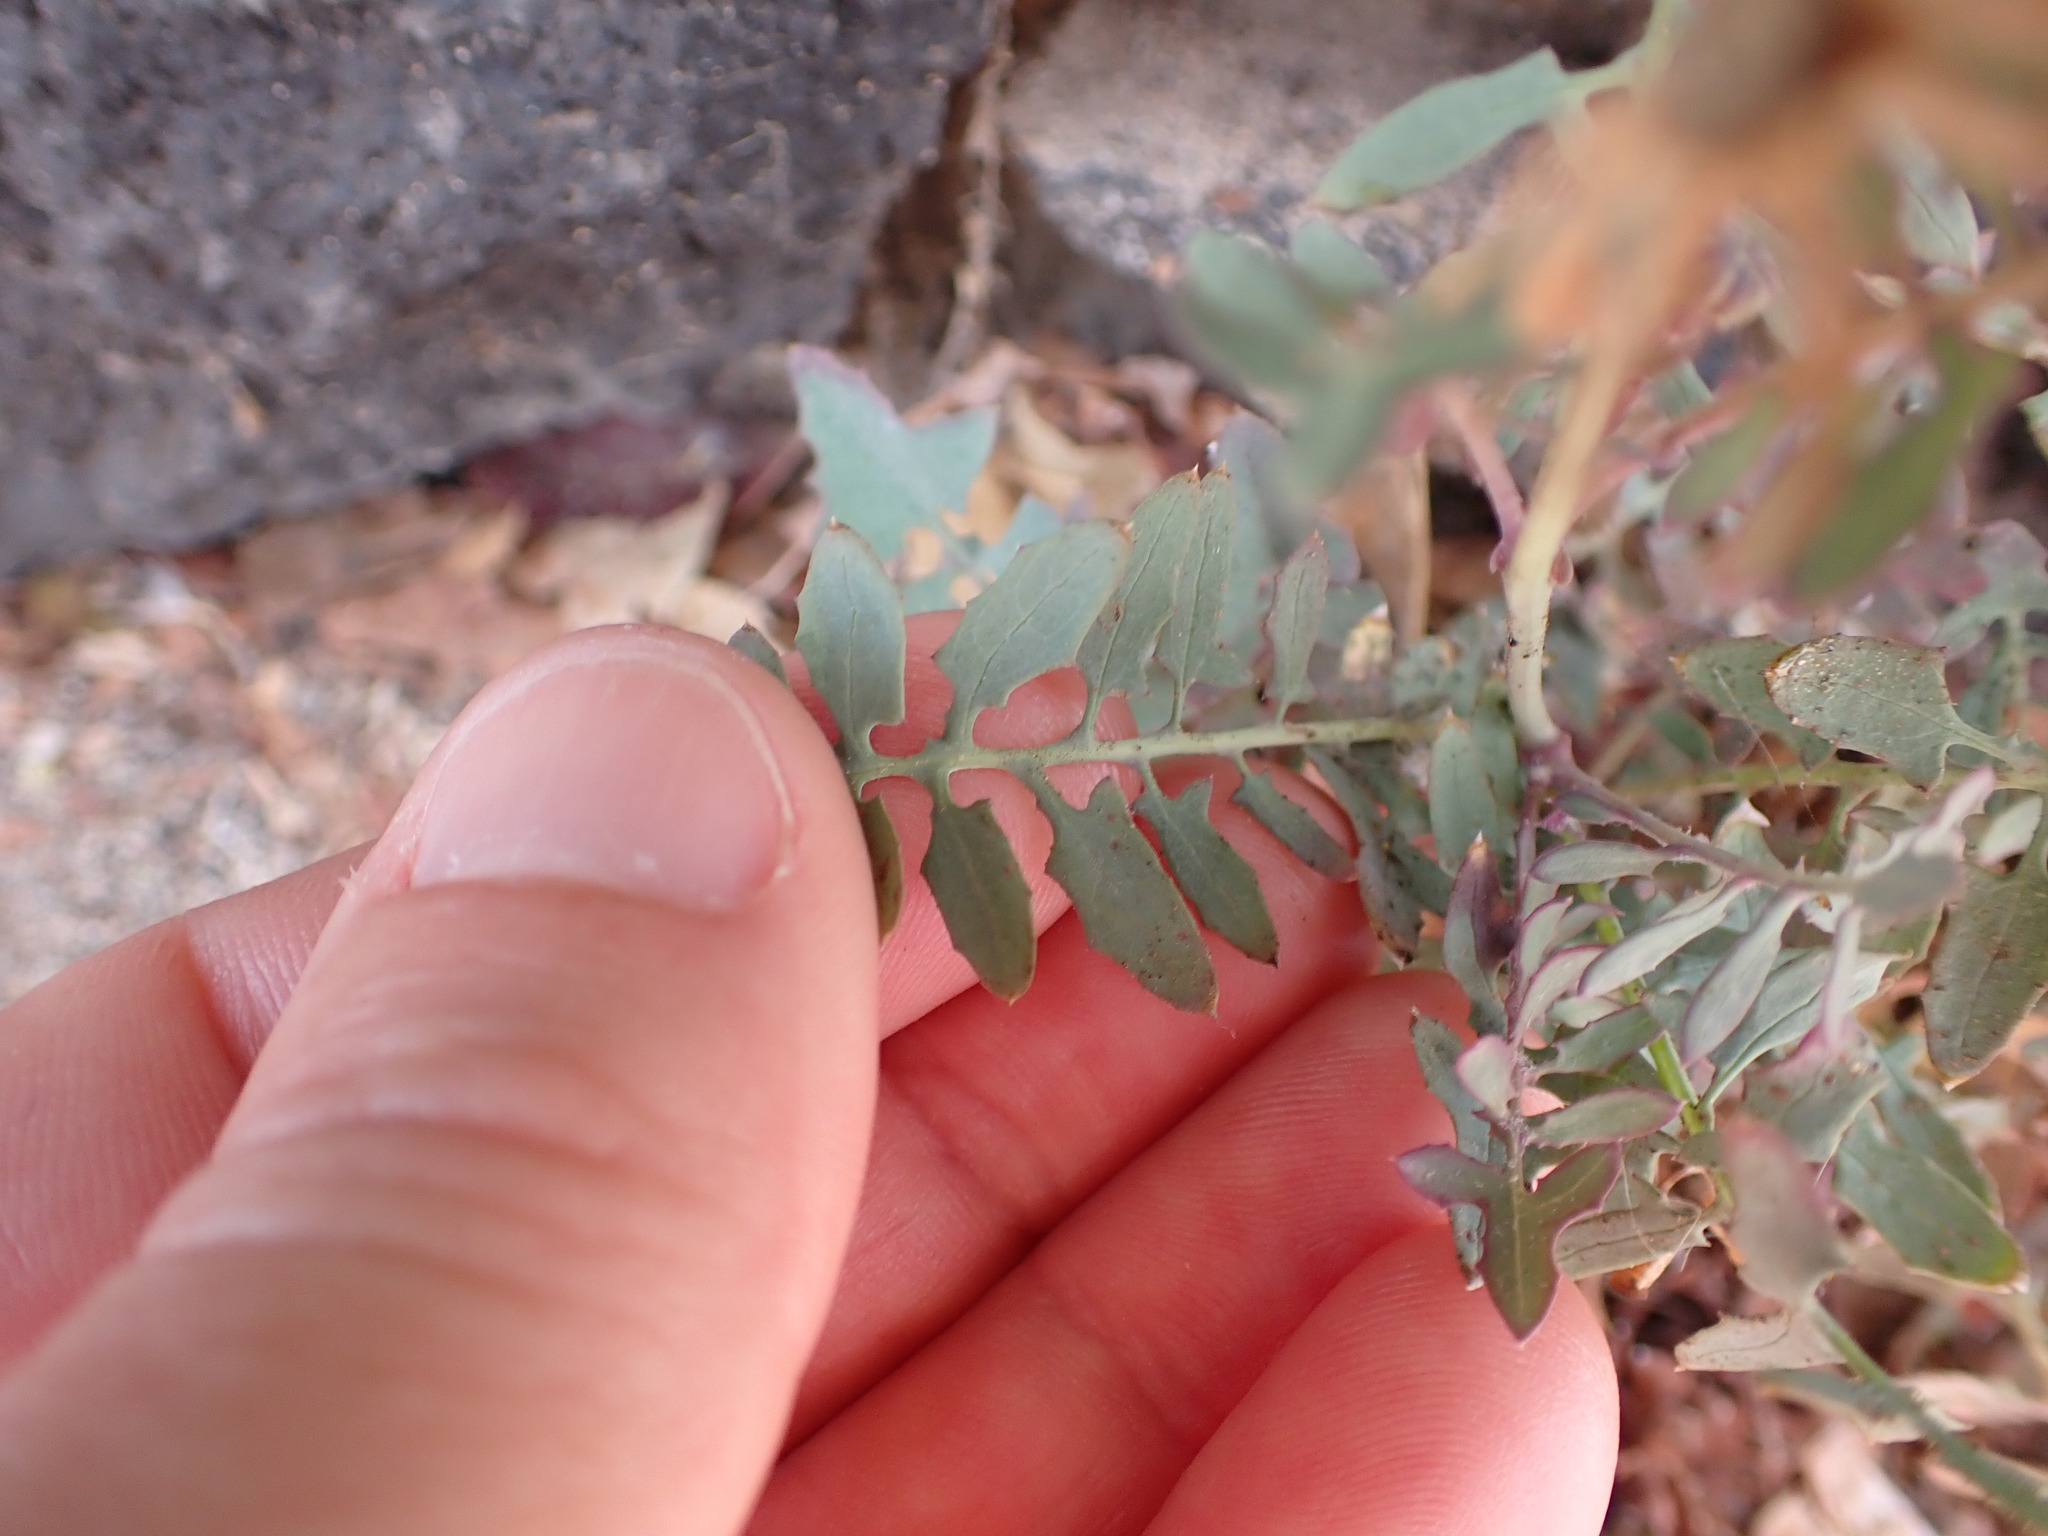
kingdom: Plantae
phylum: Tracheophyta
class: Magnoliopsida
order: Asterales
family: Asteraceae
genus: Sonchus
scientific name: Sonchus tenerrimus
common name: Clammy sowthistle
